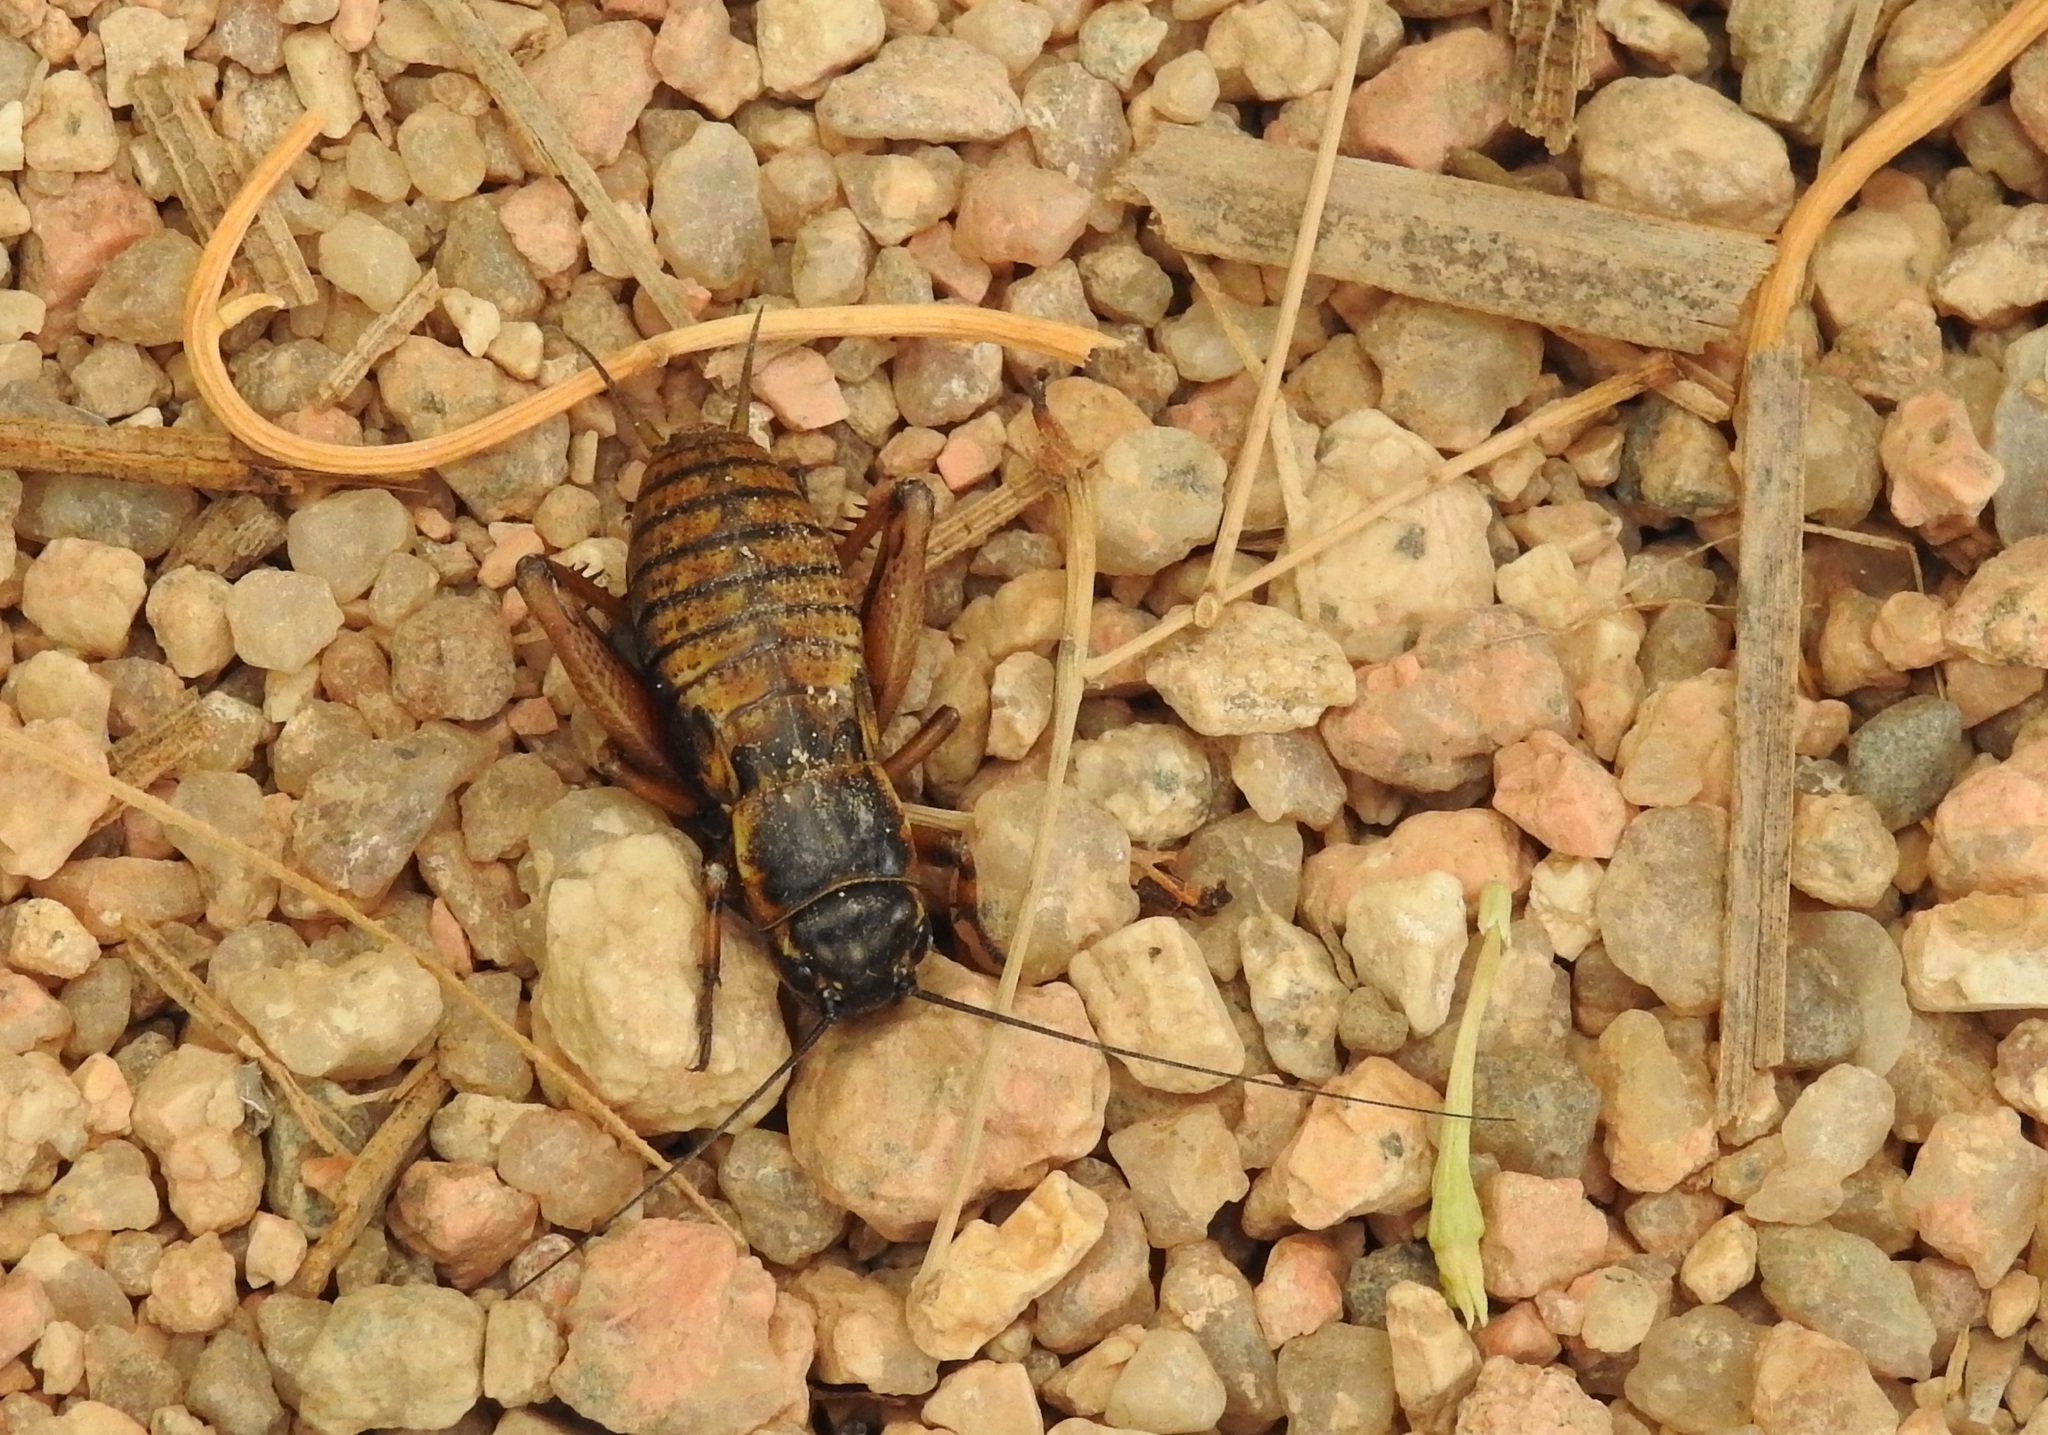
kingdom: Animalia
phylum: Arthropoda
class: Insecta
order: Orthoptera
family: Gryllidae
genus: Gryllus
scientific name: Gryllus bimaculatus
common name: Two-spotted cricket
